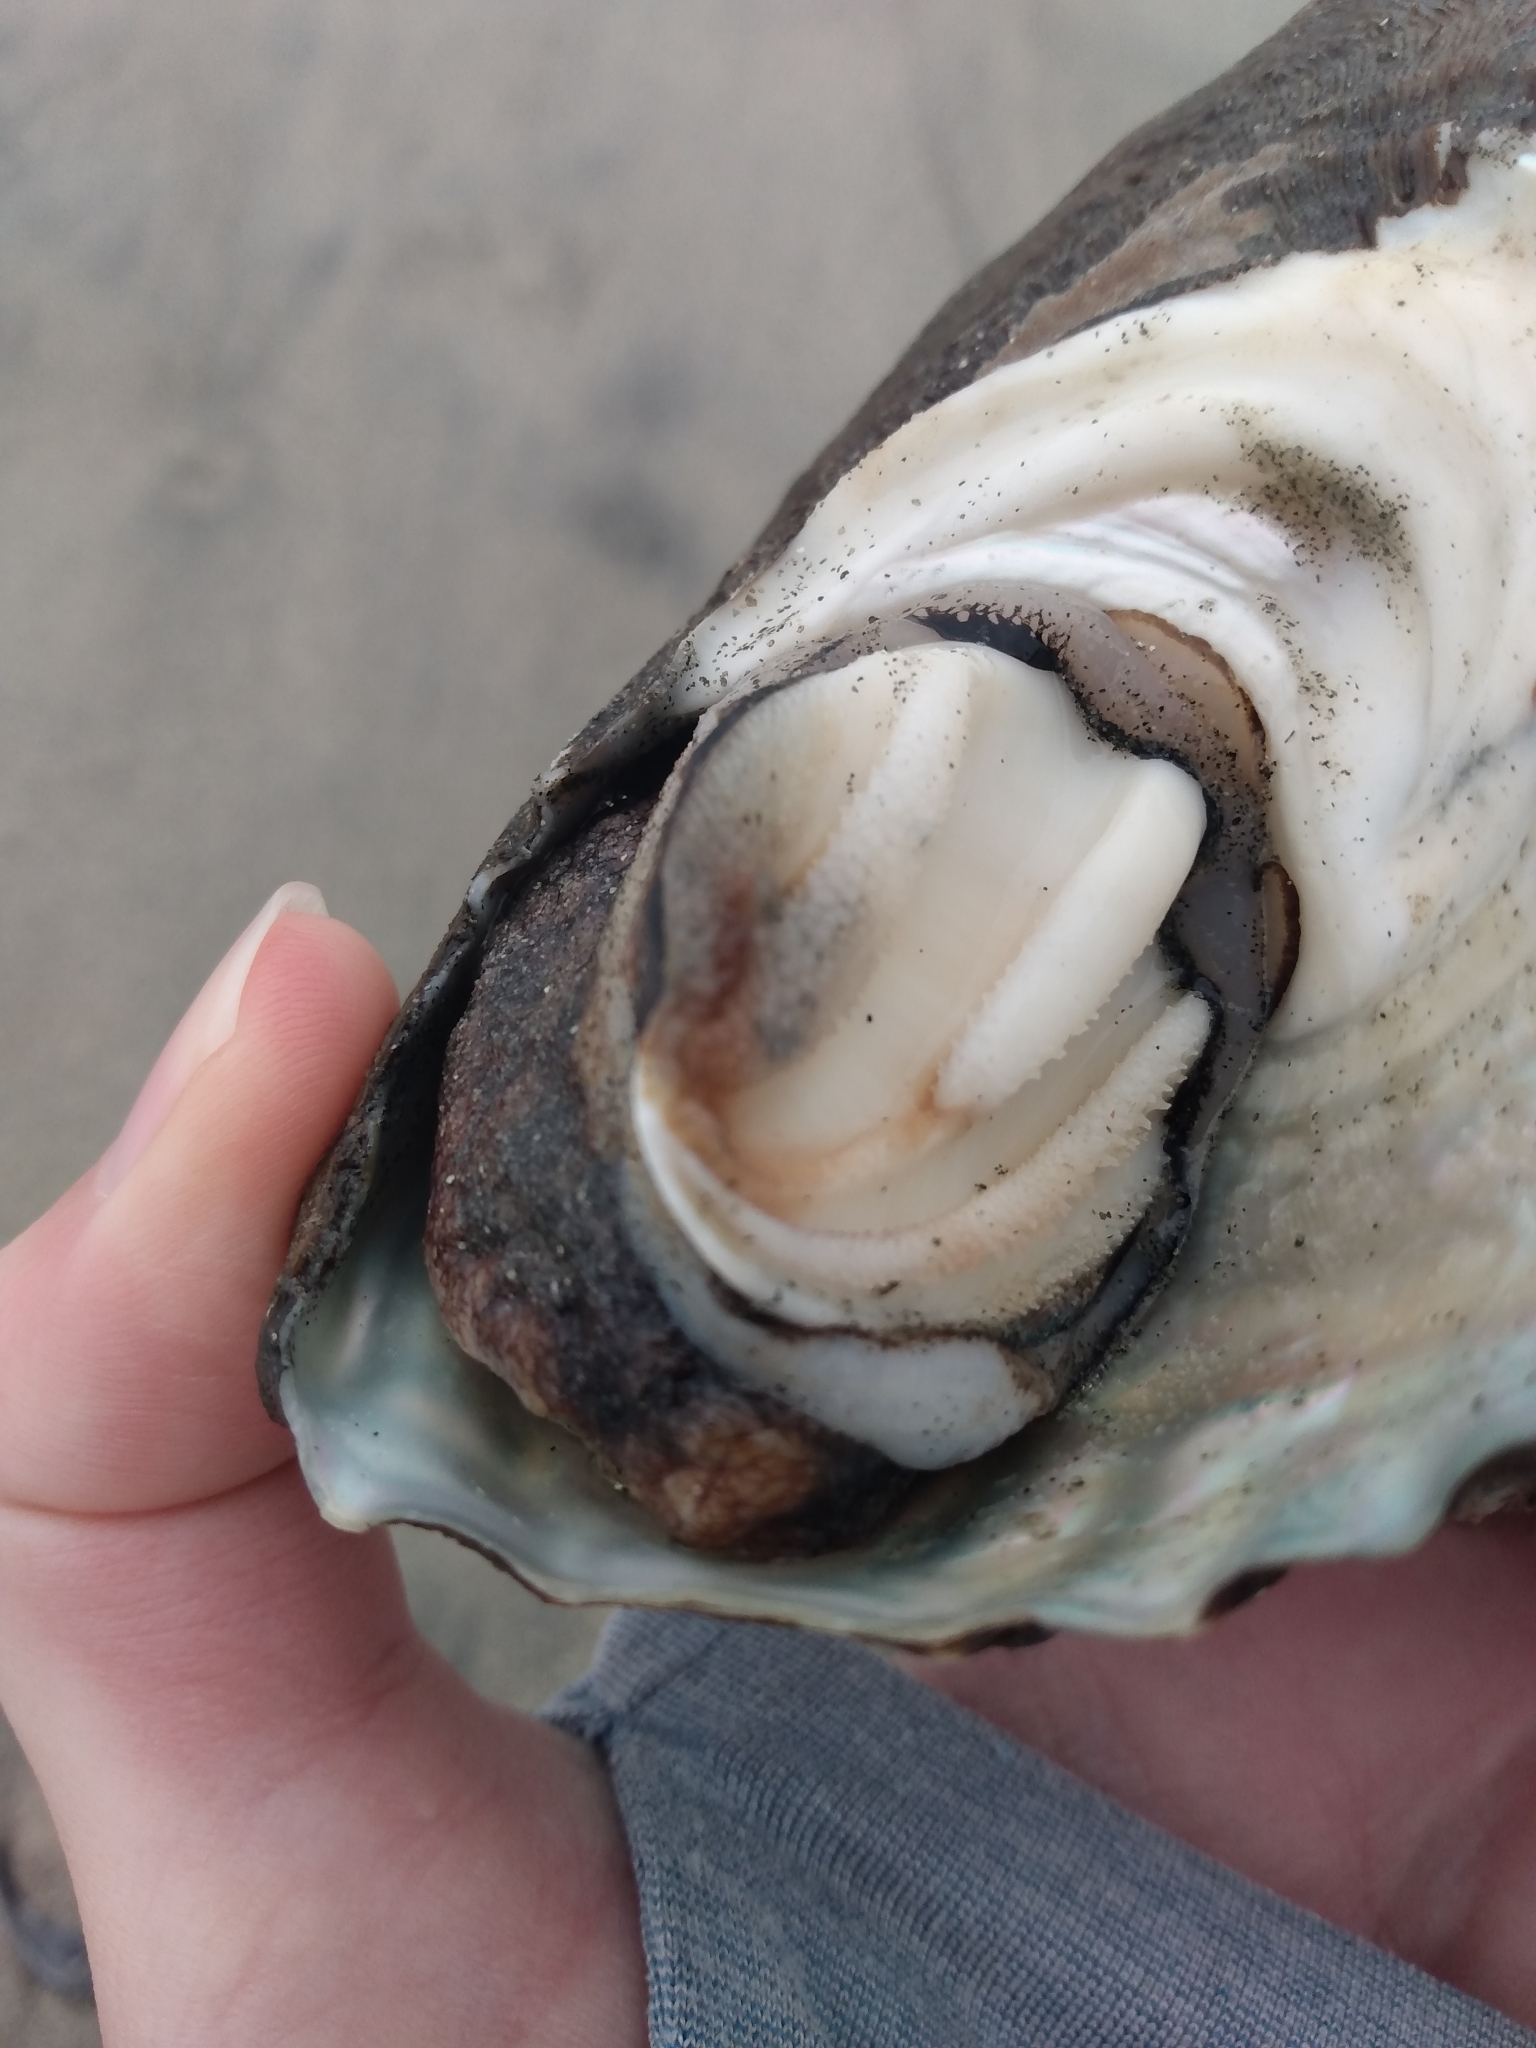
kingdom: Animalia
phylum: Mollusca
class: Gastropoda
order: Trochida
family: Turbinidae
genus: Megastraea
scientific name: Megastraea undosa
